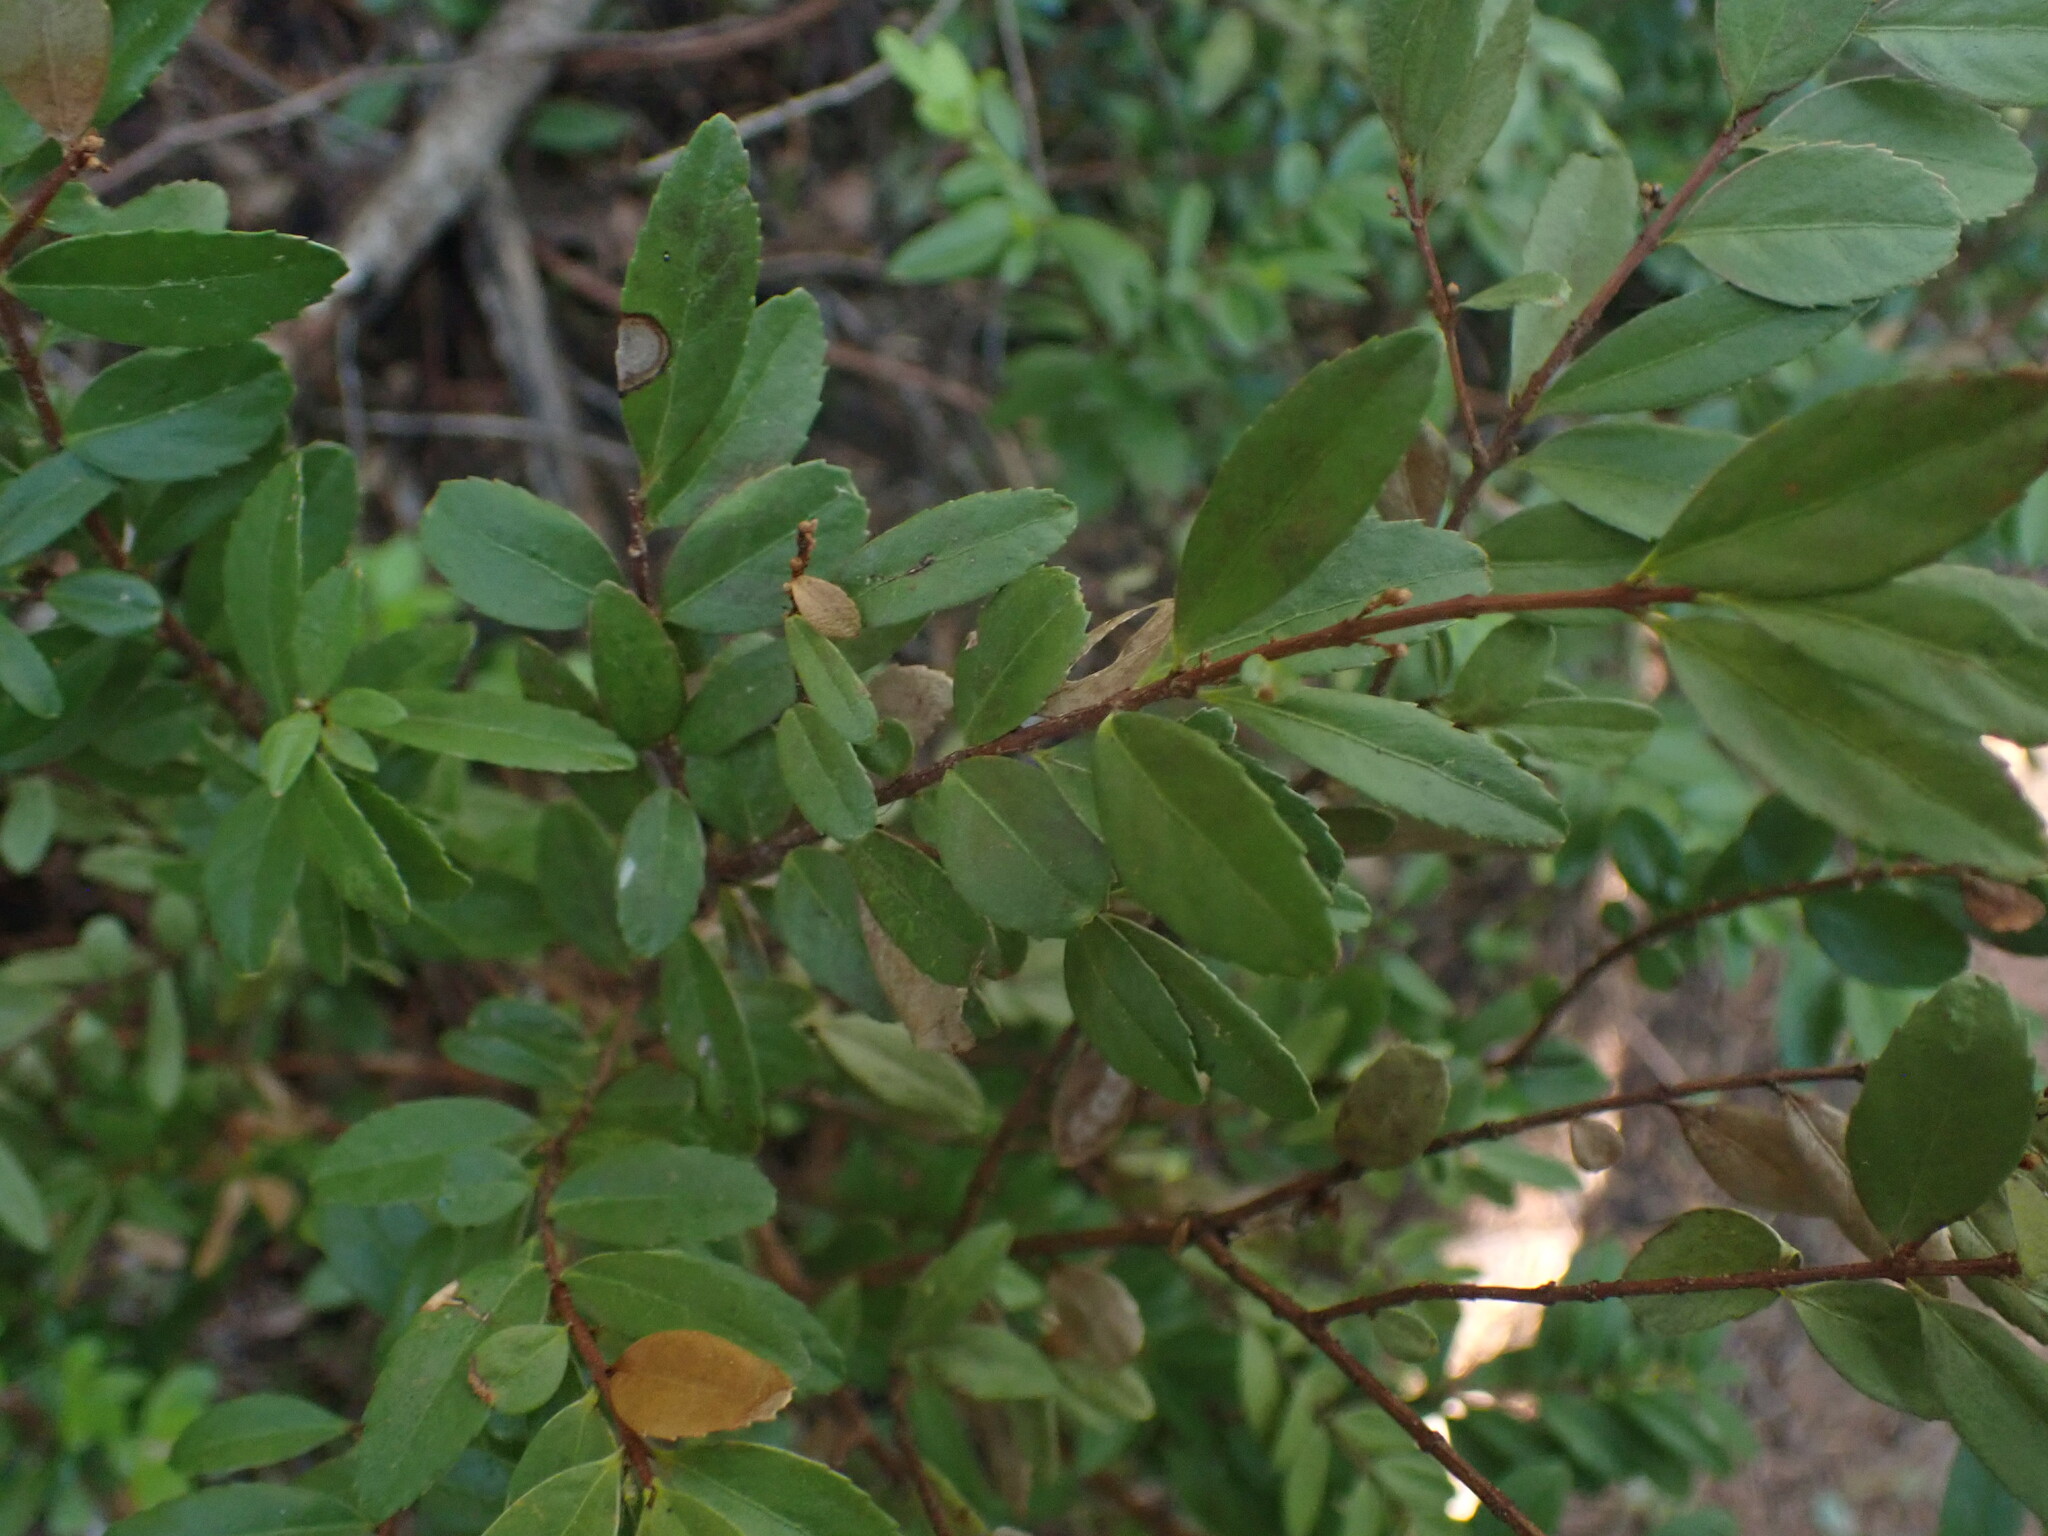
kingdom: Plantae
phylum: Tracheophyta
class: Magnoliopsida
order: Celastrales
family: Celastraceae
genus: Paxistima
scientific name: Paxistima myrsinites
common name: Mountain-lover
